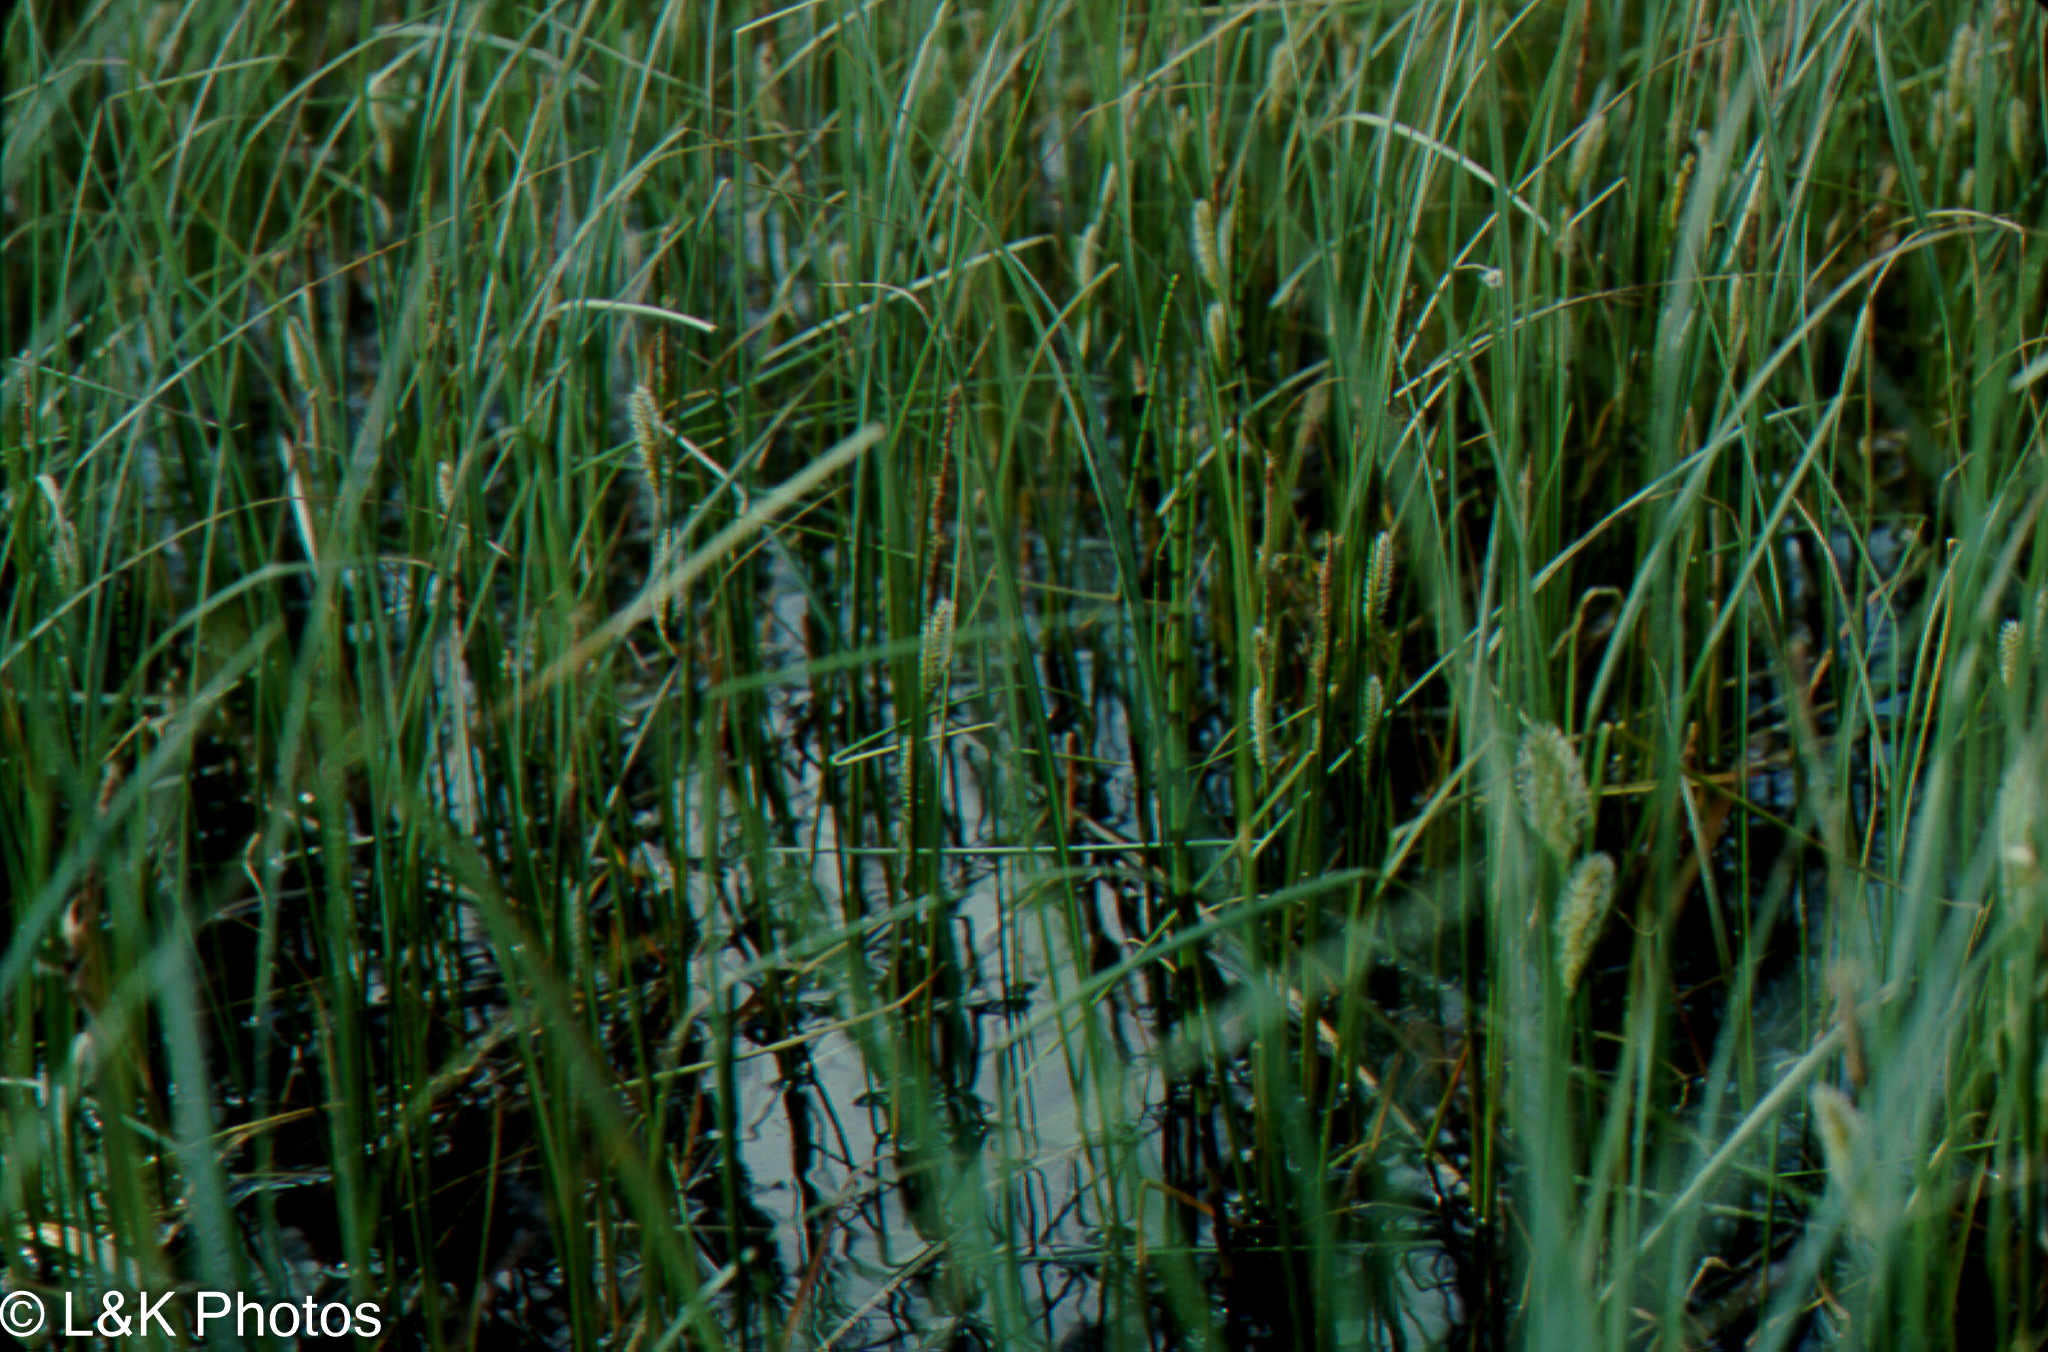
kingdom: Plantae
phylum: Tracheophyta
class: Liliopsida
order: Poales
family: Cyperaceae
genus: Carex
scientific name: Carex rostrata
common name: Bottle sedge
